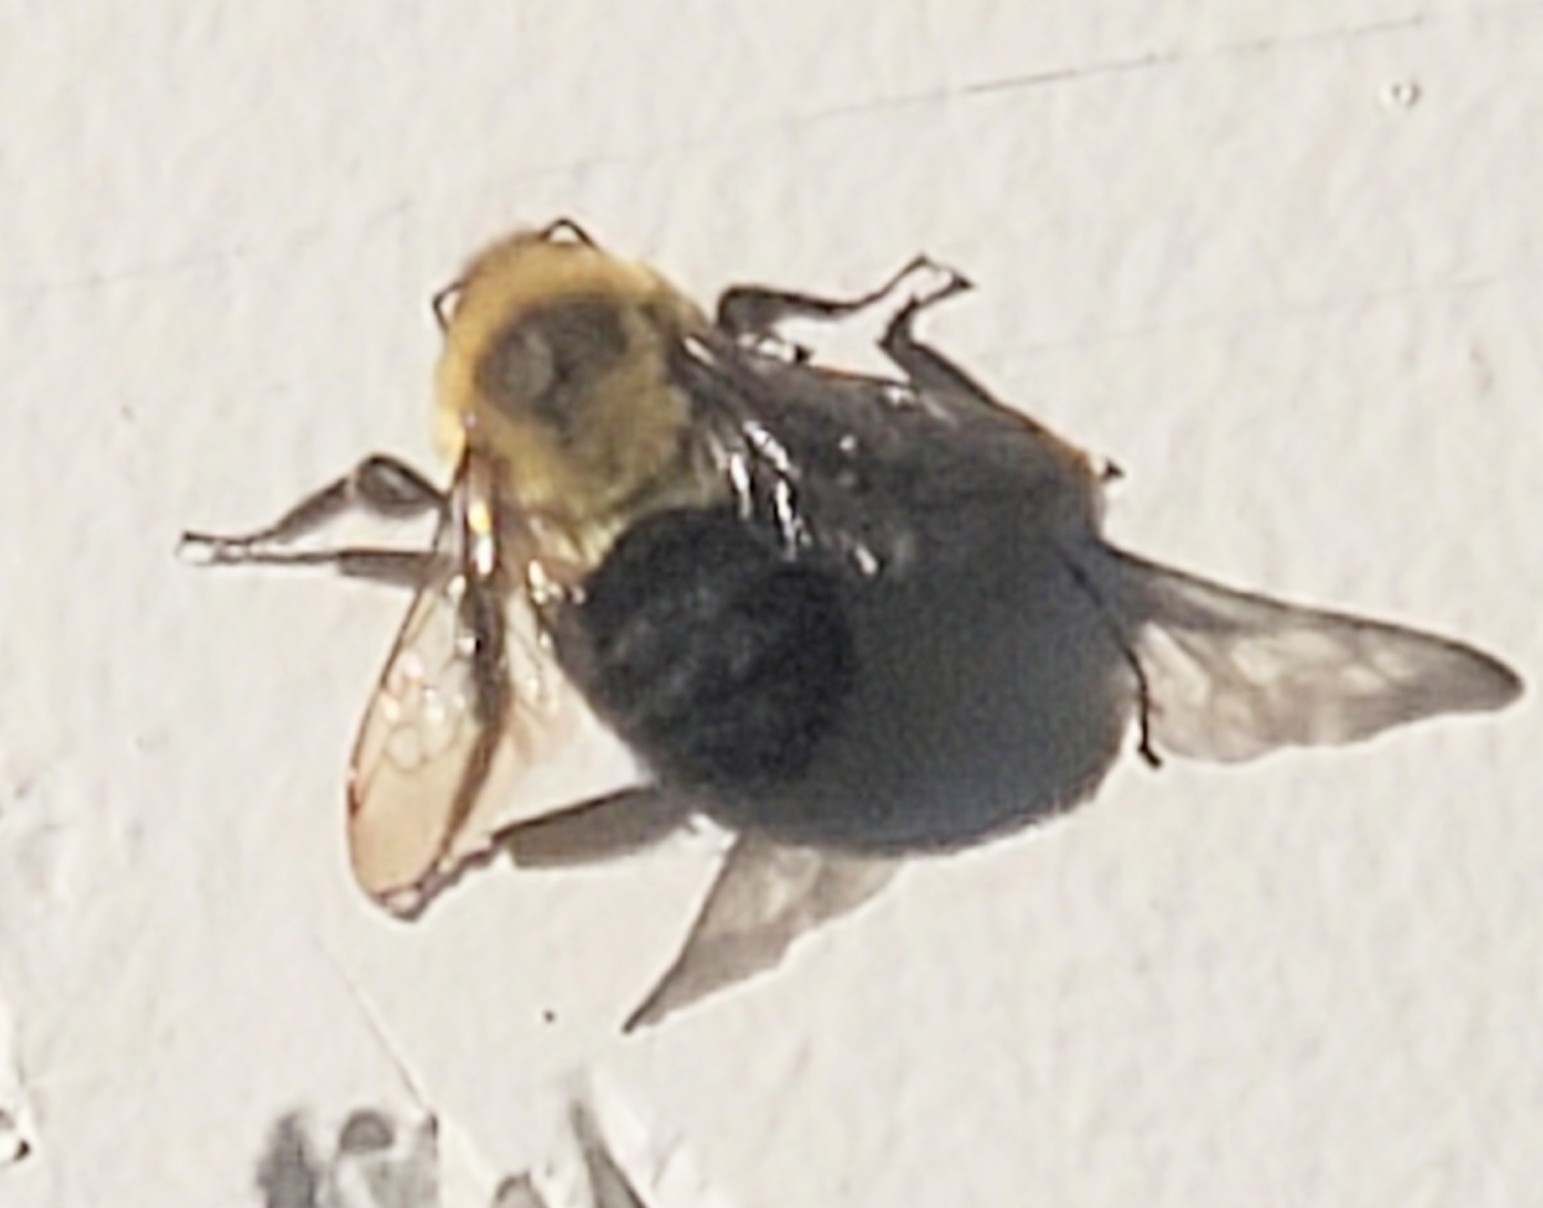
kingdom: Animalia
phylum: Arthropoda
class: Insecta
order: Hymenoptera
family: Apidae
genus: Bombus
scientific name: Bombus impatiens
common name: Common eastern bumble bee
